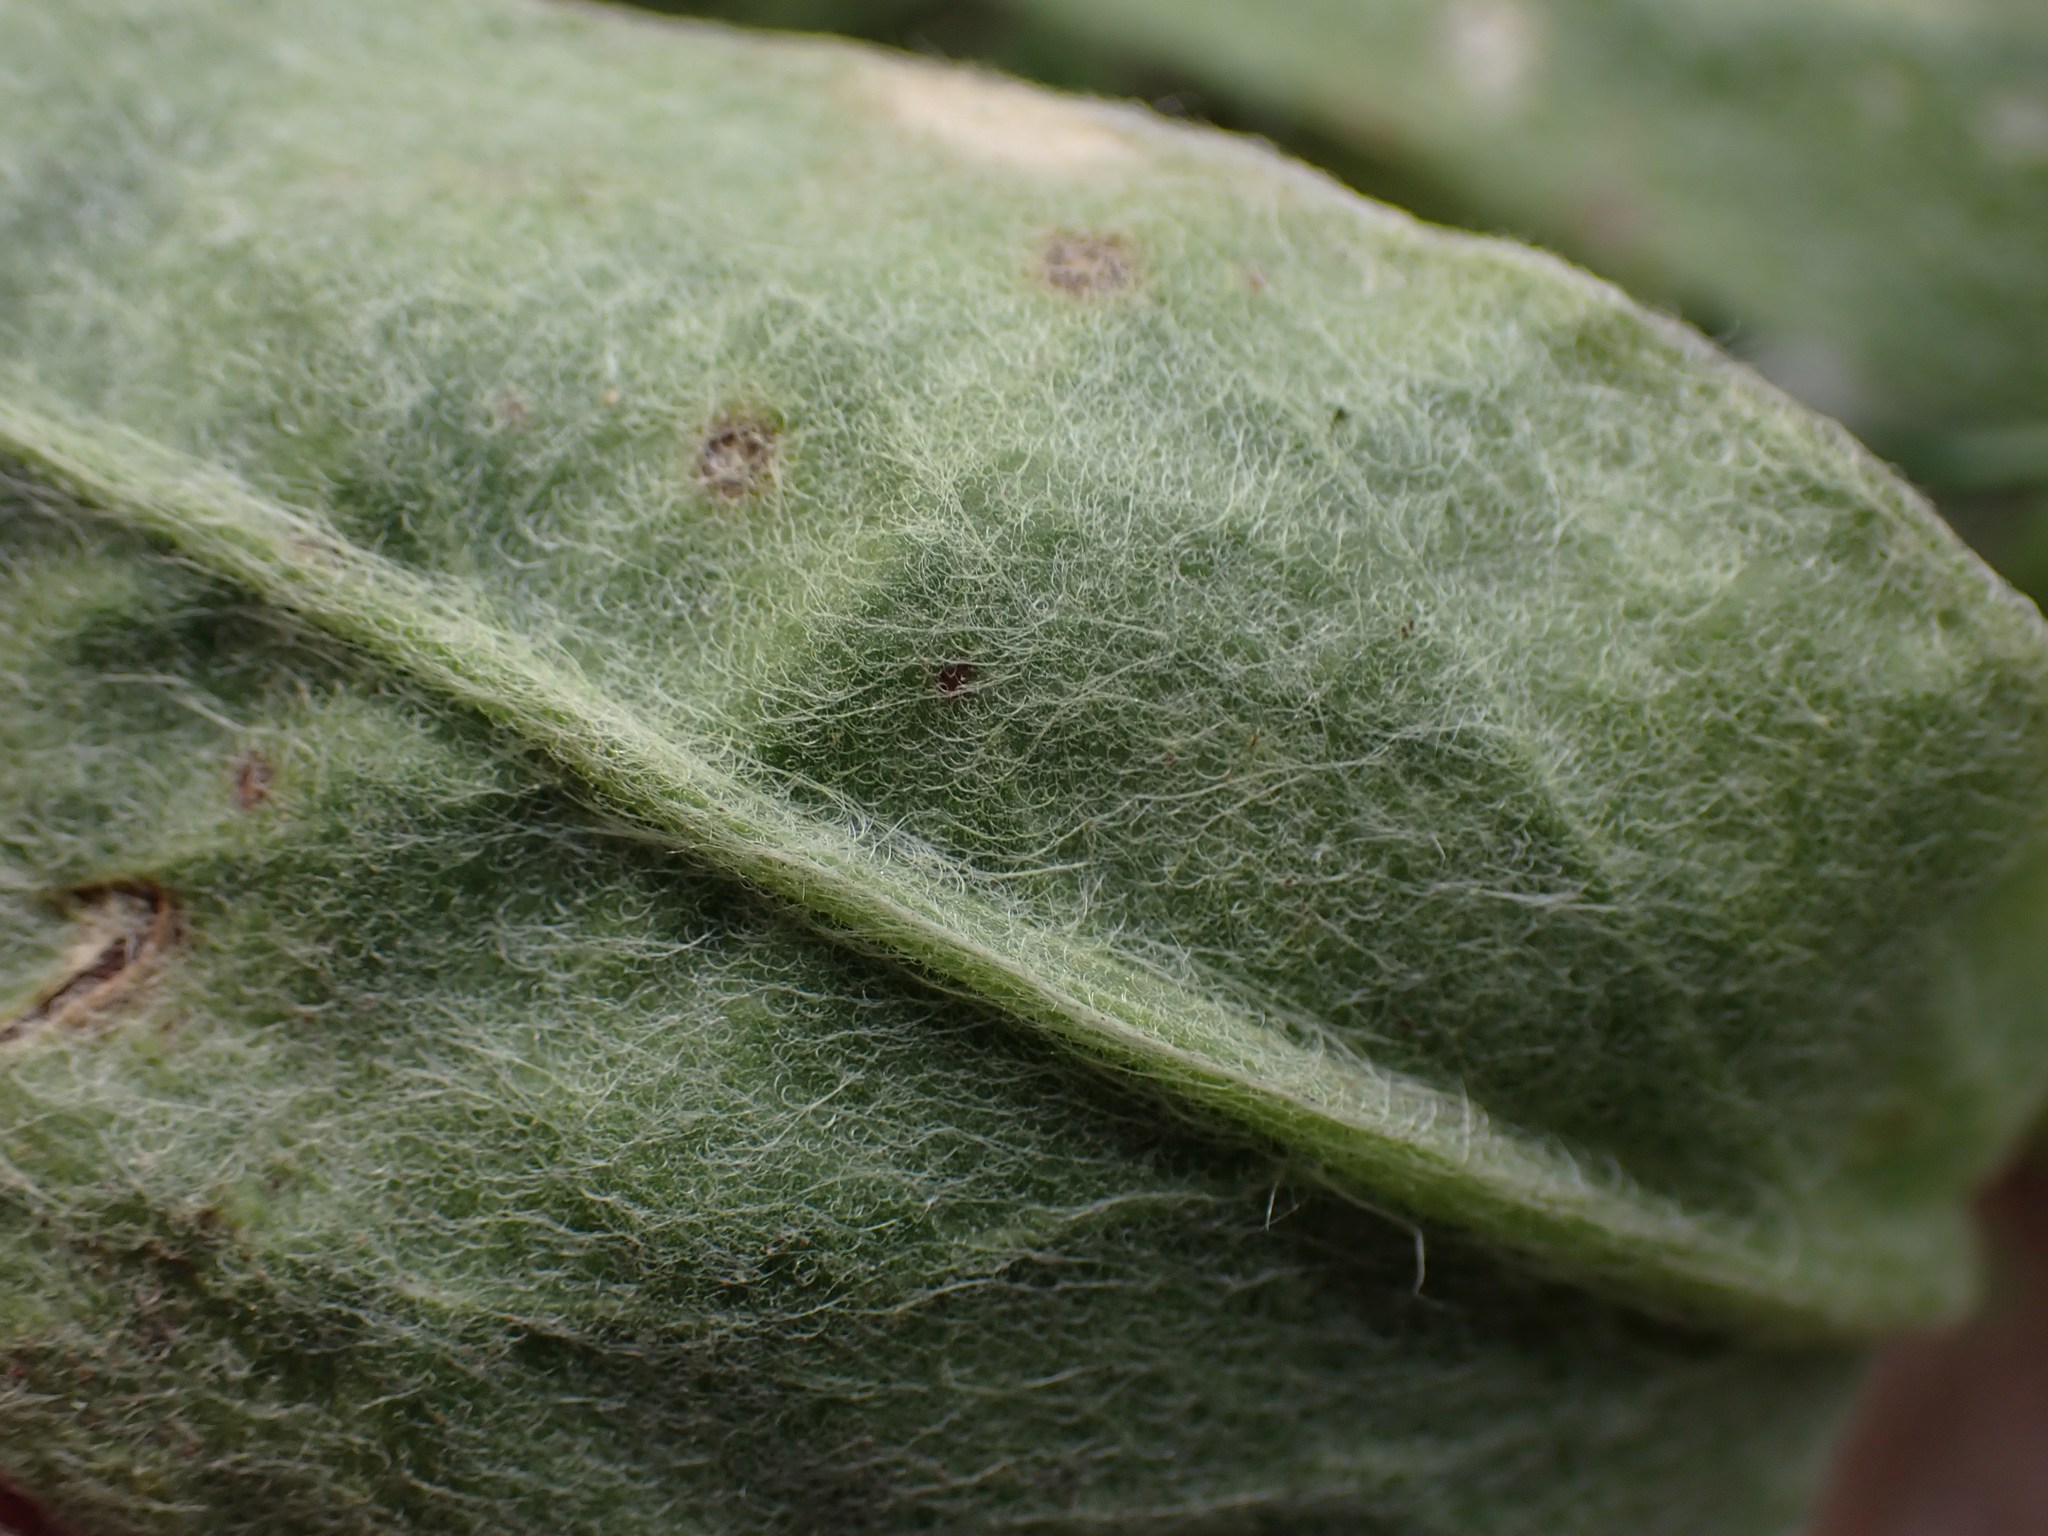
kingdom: Plantae
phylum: Tracheophyta
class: Magnoliopsida
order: Caryophyllales
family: Caryophyllaceae
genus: Silene
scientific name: Silene coronaria
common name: Rose campion
